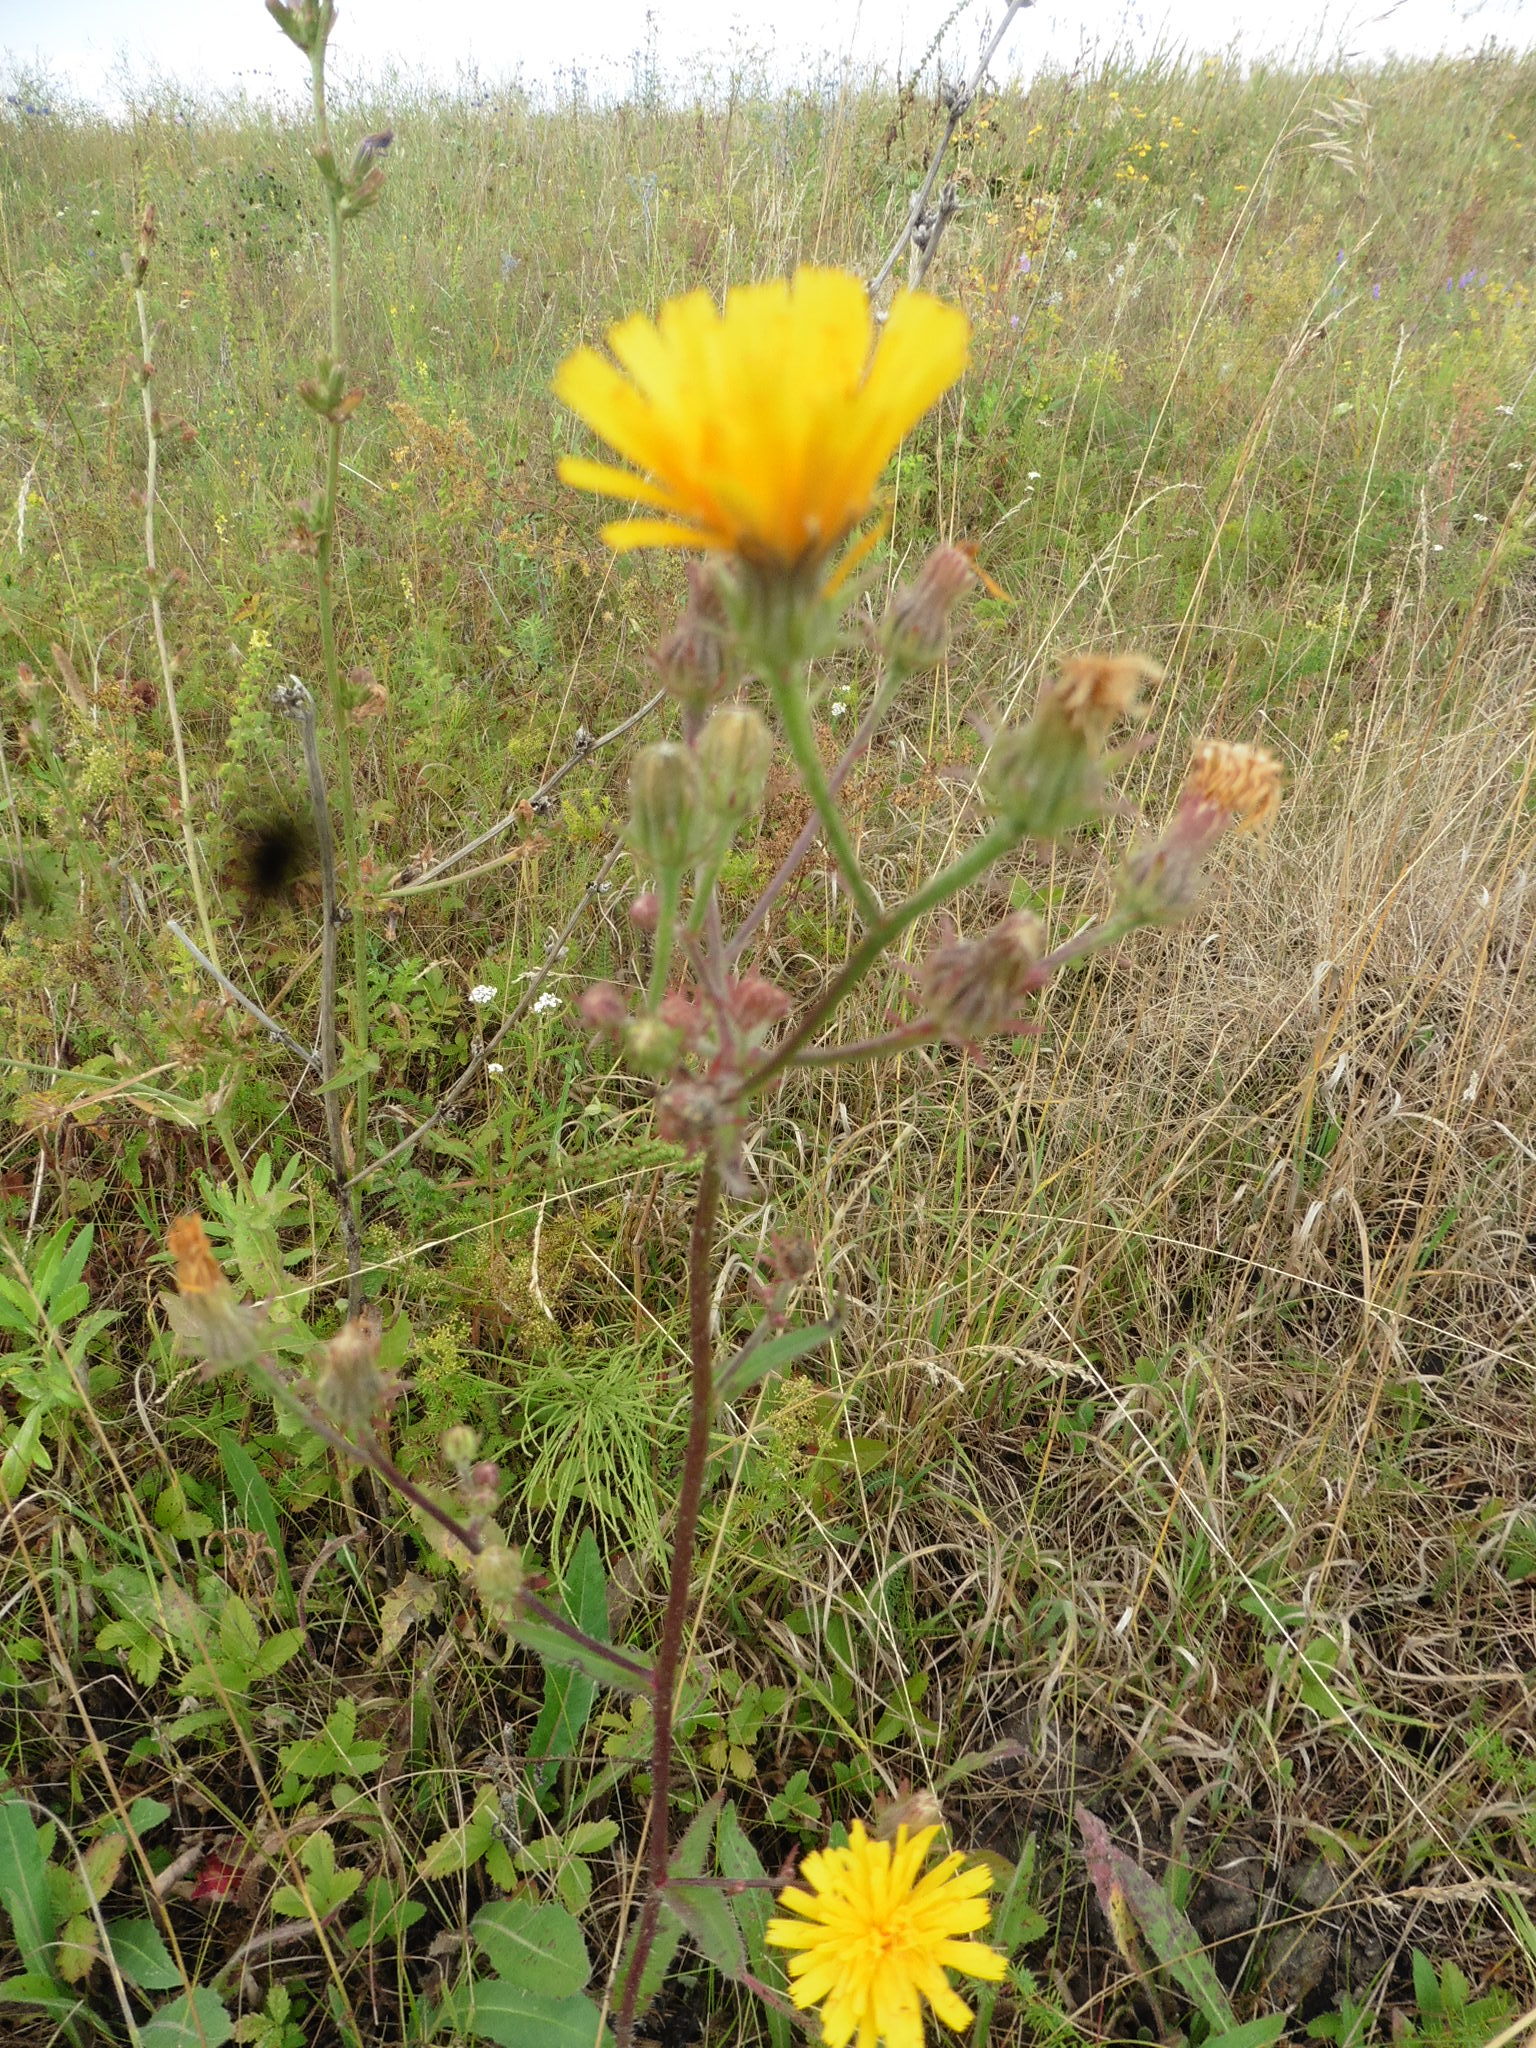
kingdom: Plantae
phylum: Tracheophyta
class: Magnoliopsida
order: Asterales
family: Asteraceae
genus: Picris
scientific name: Picris hieracioides
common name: Hawkweed oxtongue
